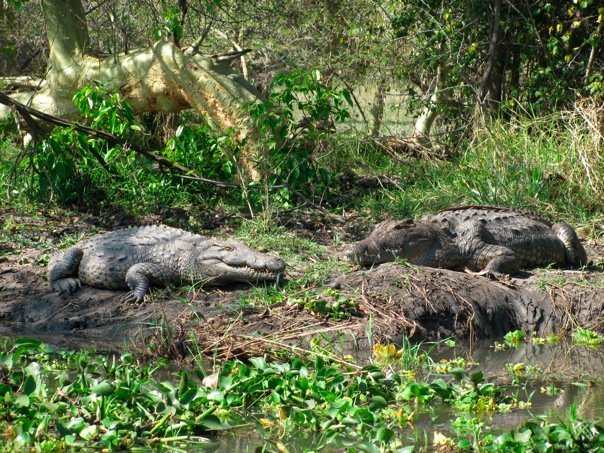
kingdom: Animalia
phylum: Chordata
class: Crocodylia
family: Crocodylidae
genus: Crocodylus
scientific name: Crocodylus niloticus
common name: Nile crocodile
